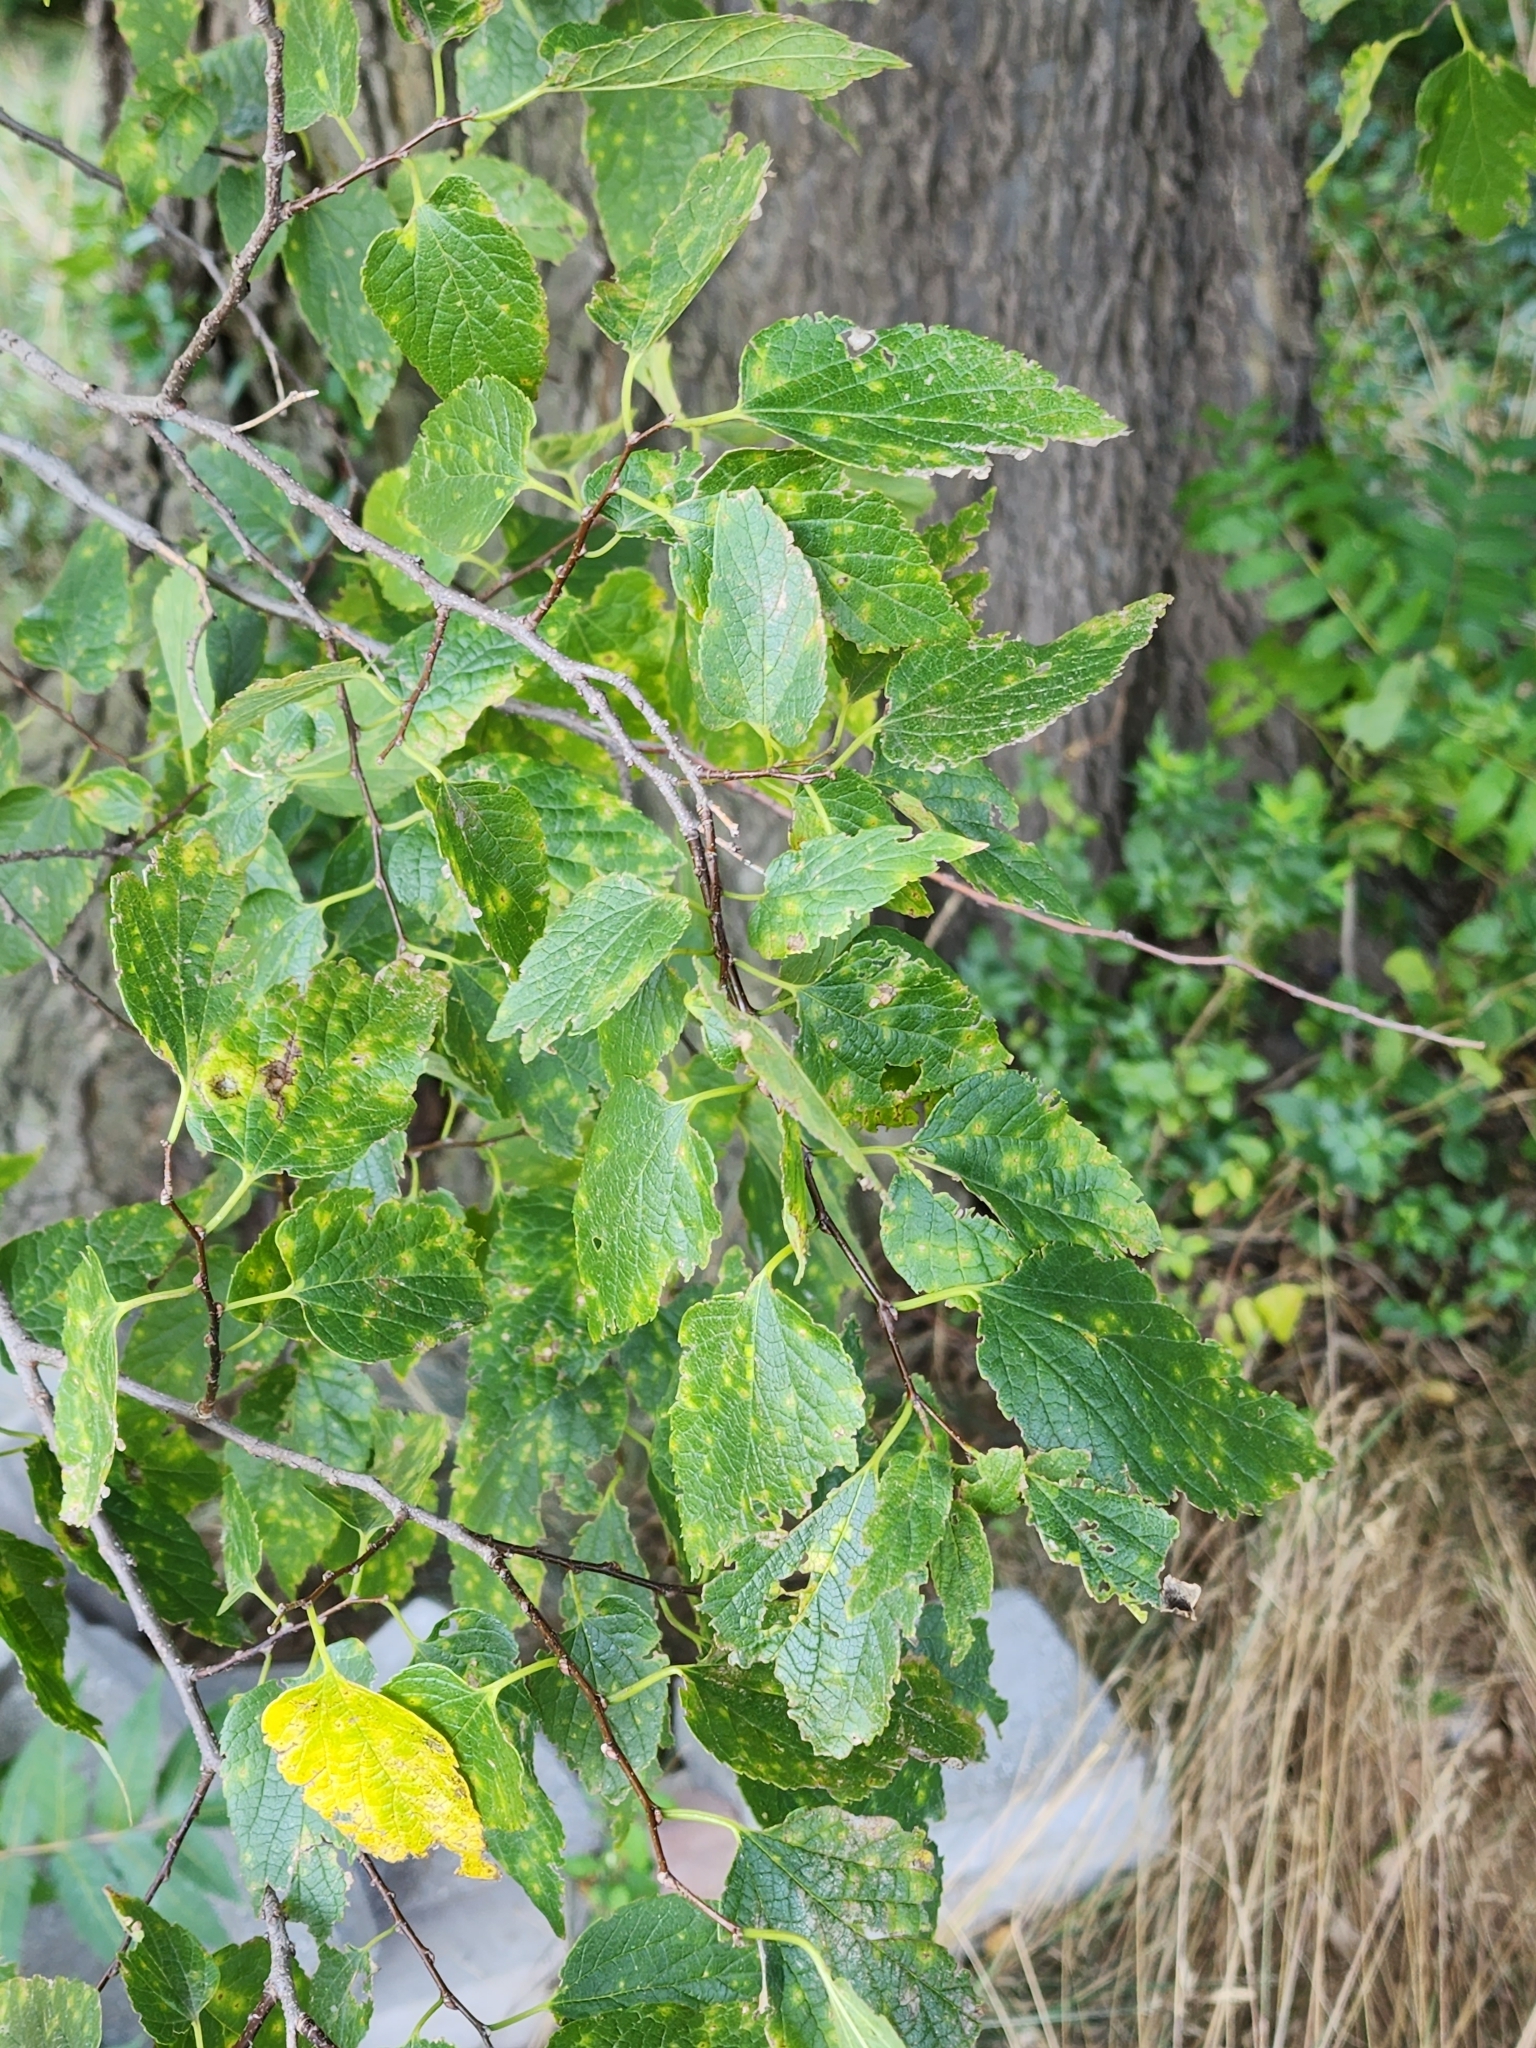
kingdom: Plantae
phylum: Tracheophyta
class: Magnoliopsida
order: Rosales
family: Cannabaceae
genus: Celtis
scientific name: Celtis occidentalis
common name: Common hackberry
